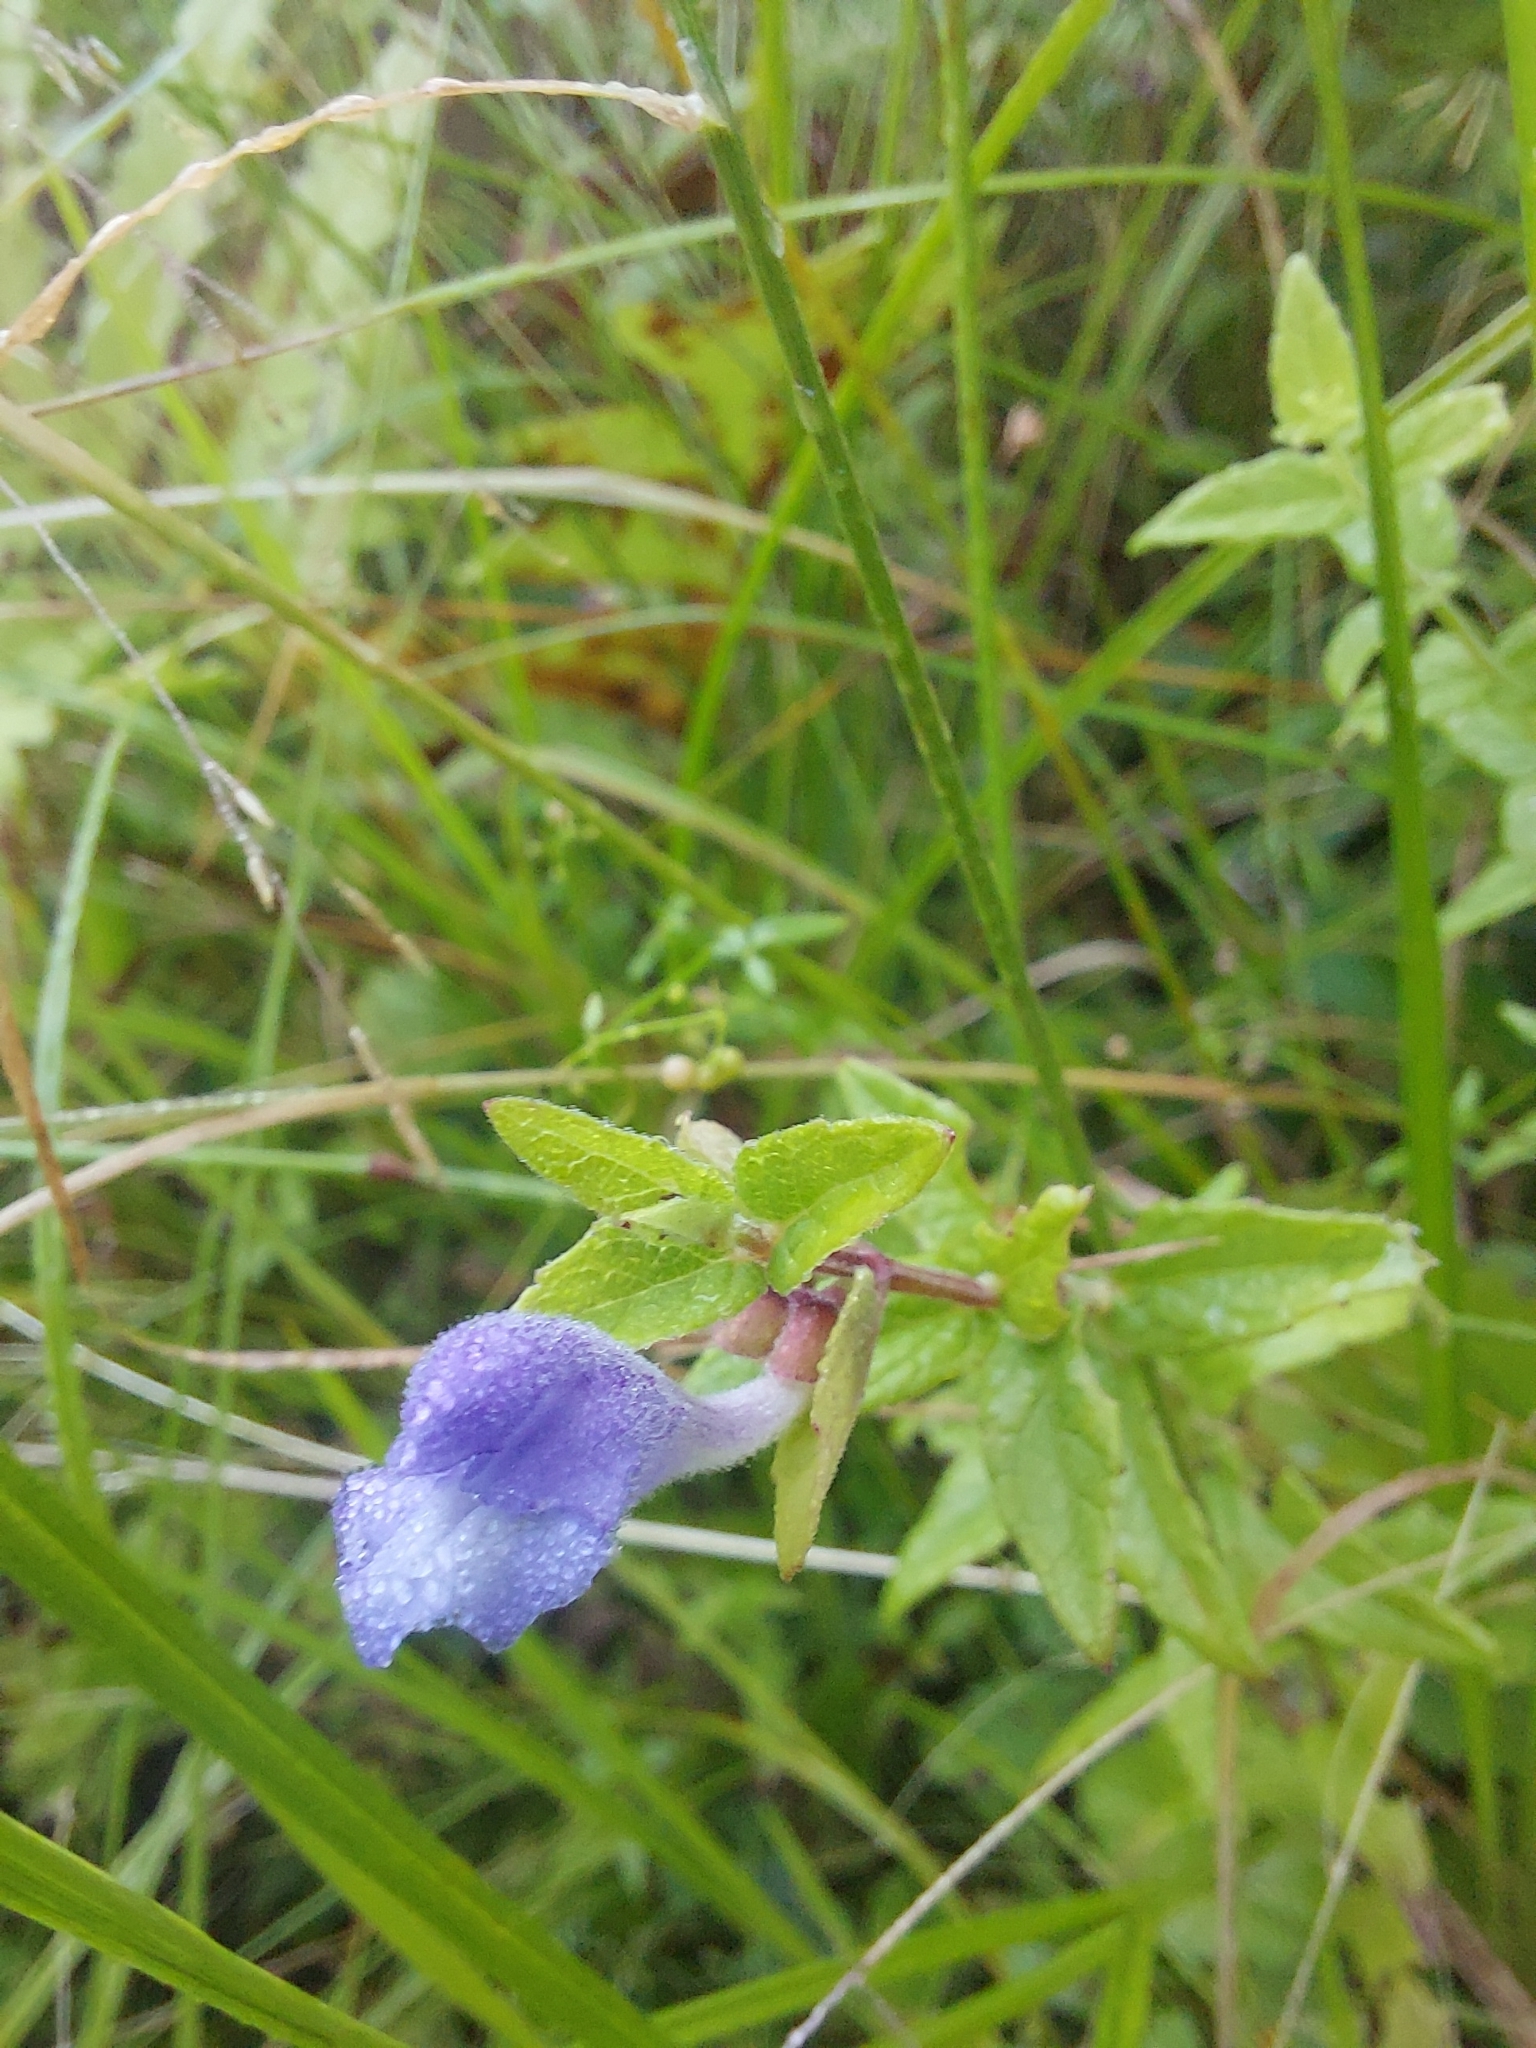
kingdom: Plantae
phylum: Tracheophyta
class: Magnoliopsida
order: Lamiales
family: Lamiaceae
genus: Scutellaria
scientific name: Scutellaria galericulata
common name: Skullcap
